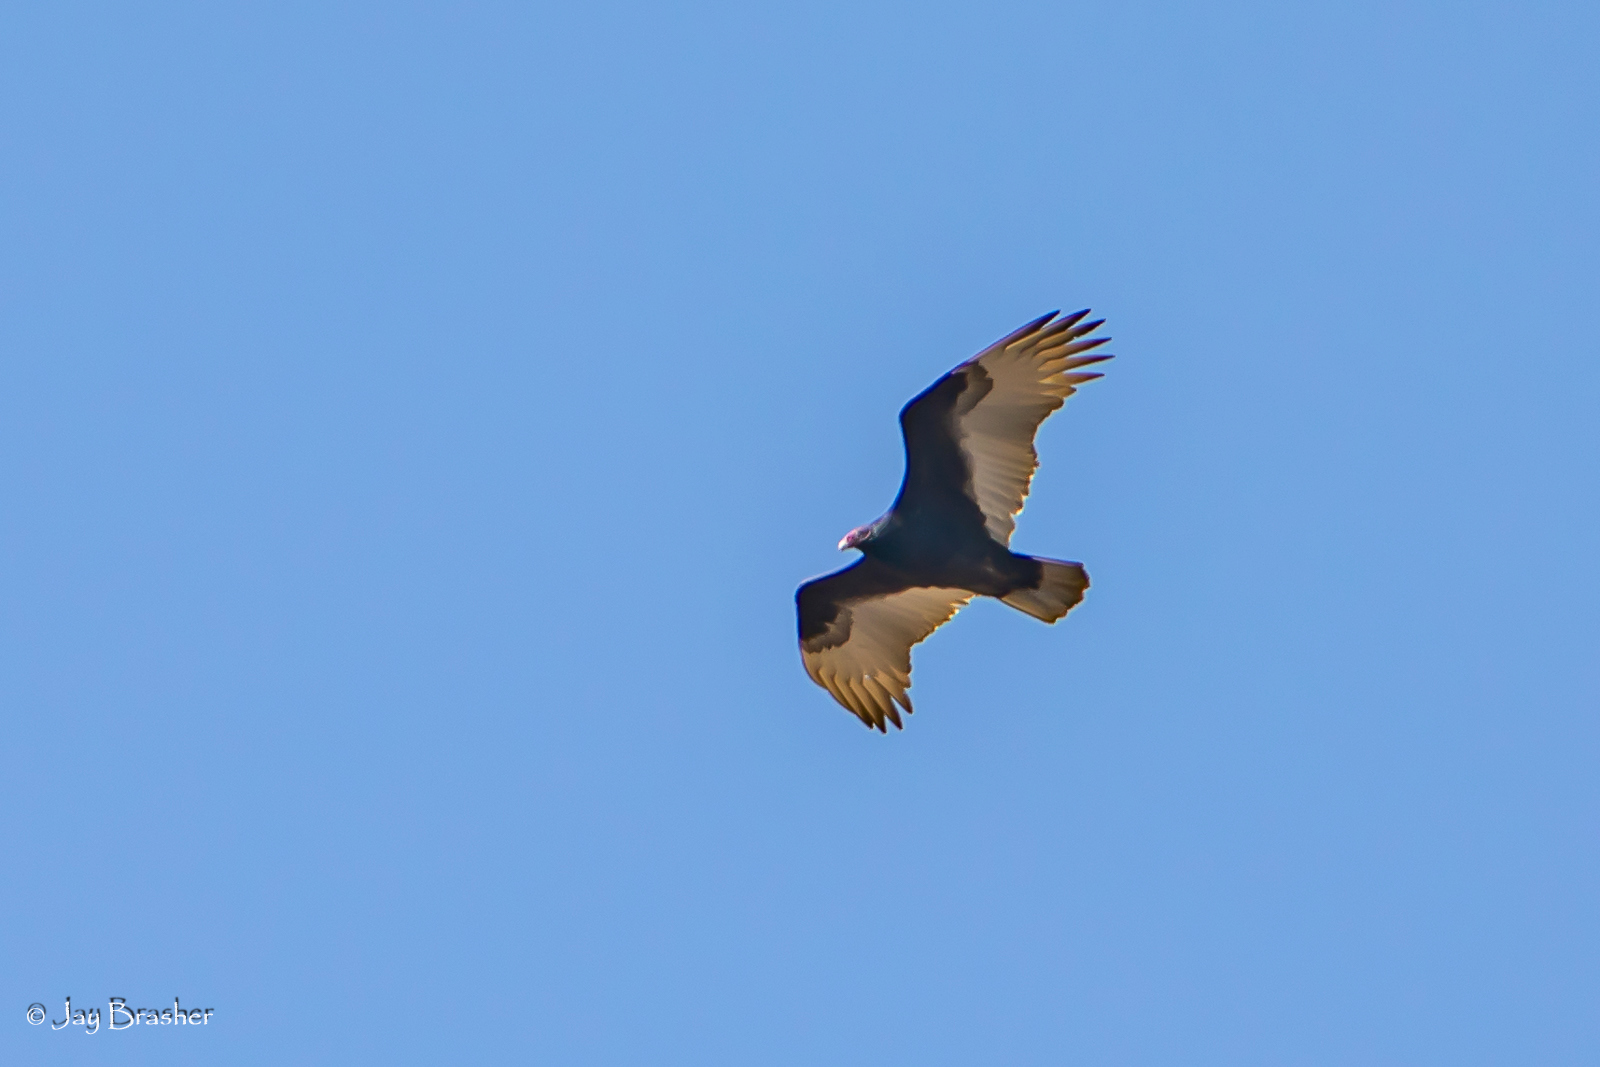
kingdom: Animalia
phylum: Chordata
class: Aves
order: Accipitriformes
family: Cathartidae
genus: Cathartes
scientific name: Cathartes aura
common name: Turkey vulture
